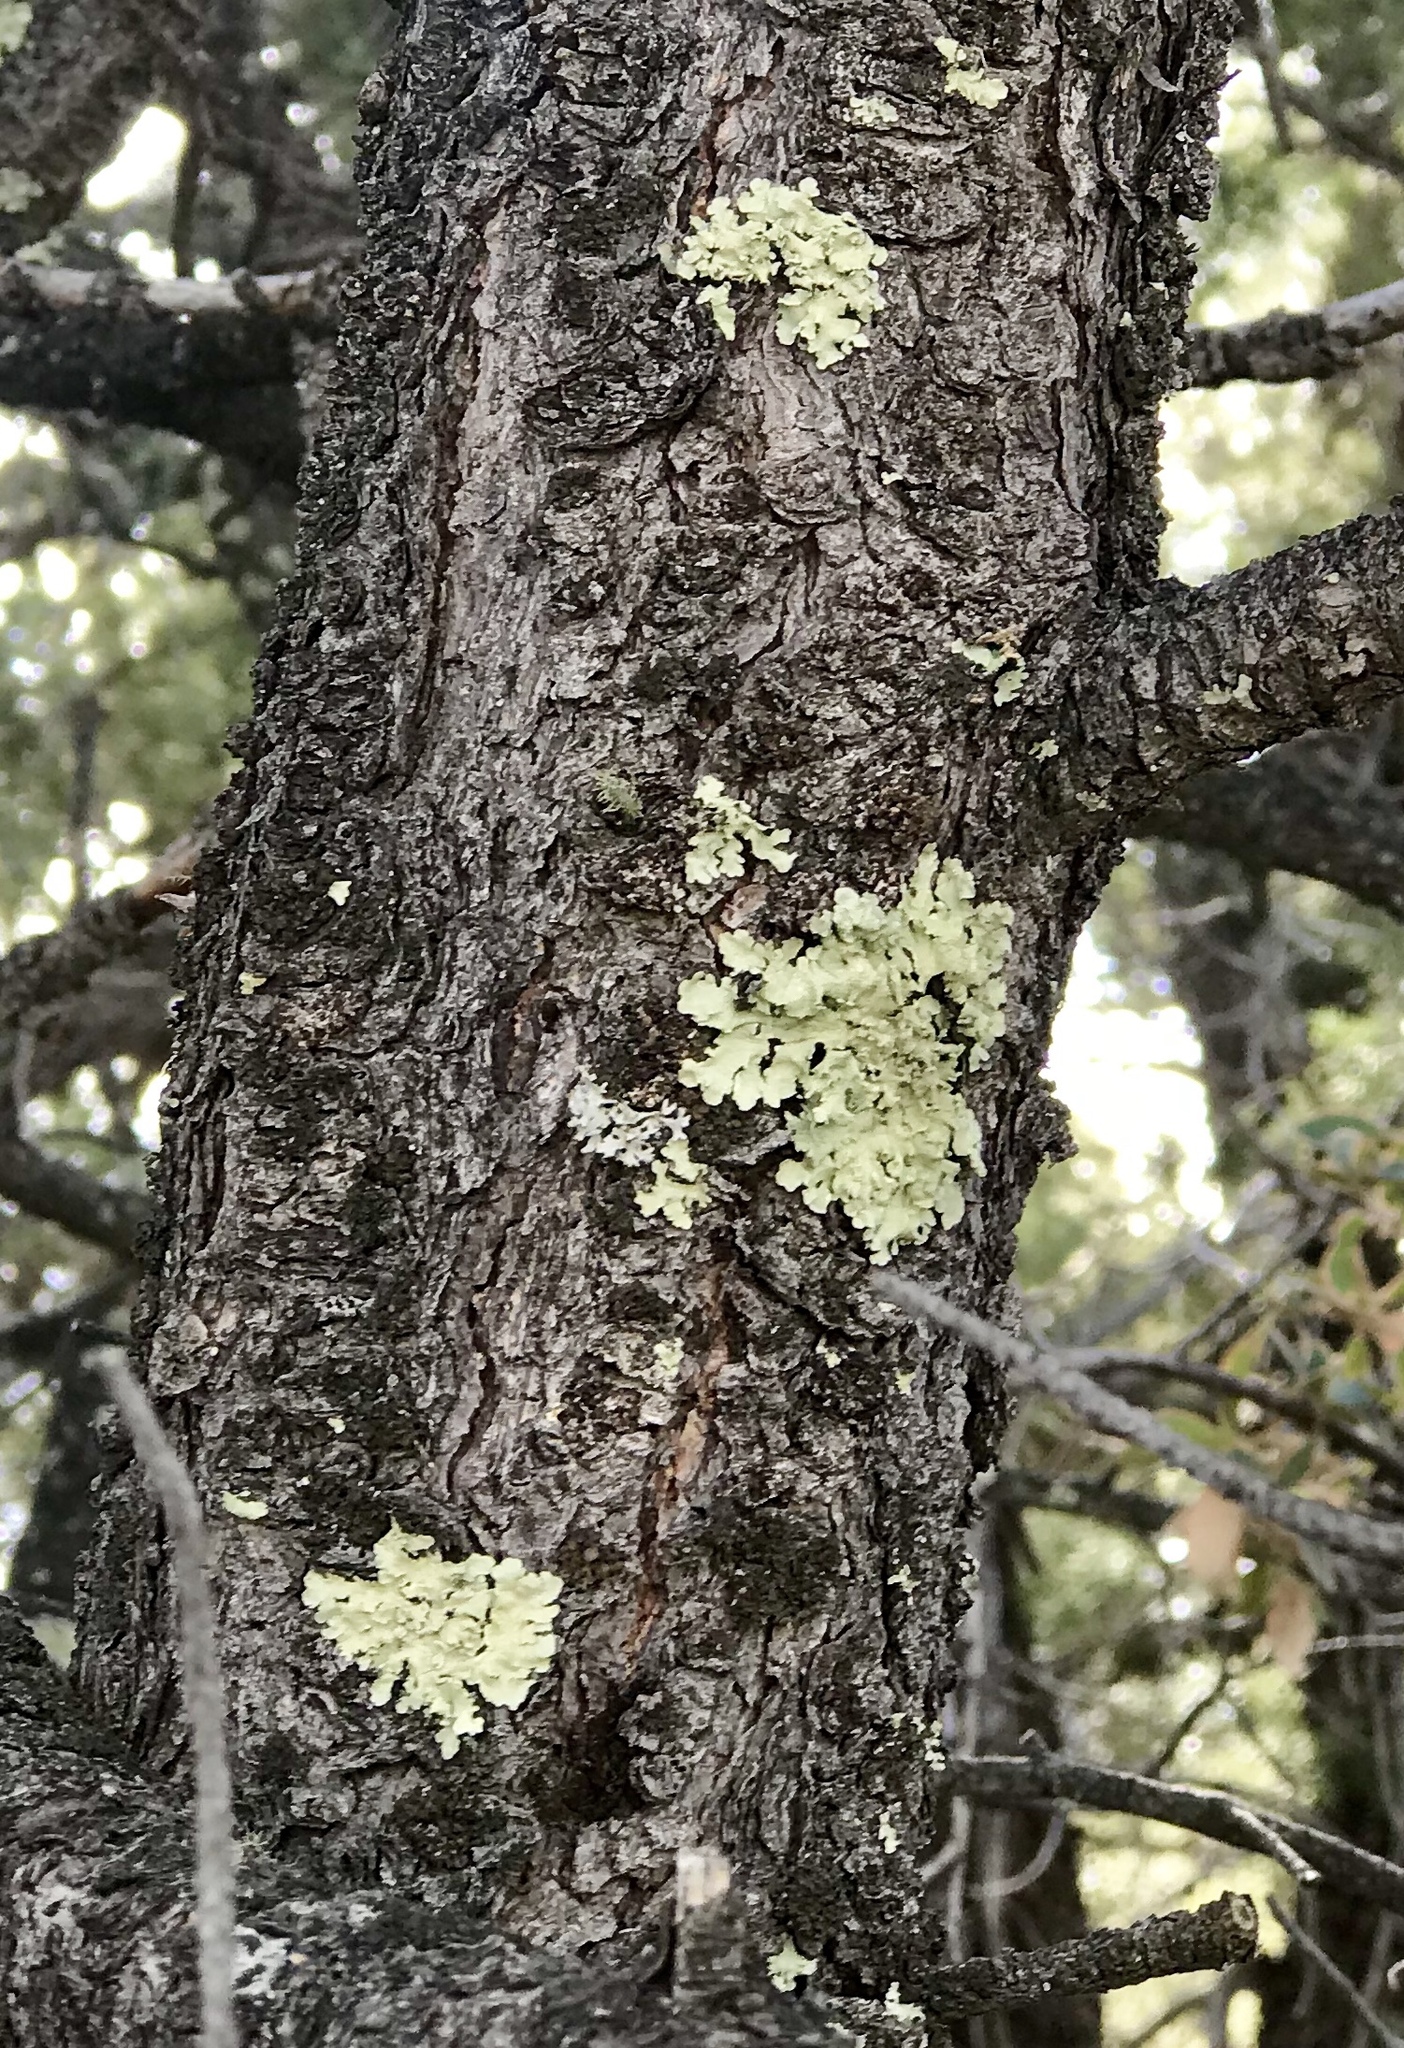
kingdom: Fungi
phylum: Ascomycota
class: Lecanoromycetes
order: Lecanorales
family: Parmeliaceae
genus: Flavoparmelia
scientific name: Flavoparmelia caperata
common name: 40-mile per hour lichen
